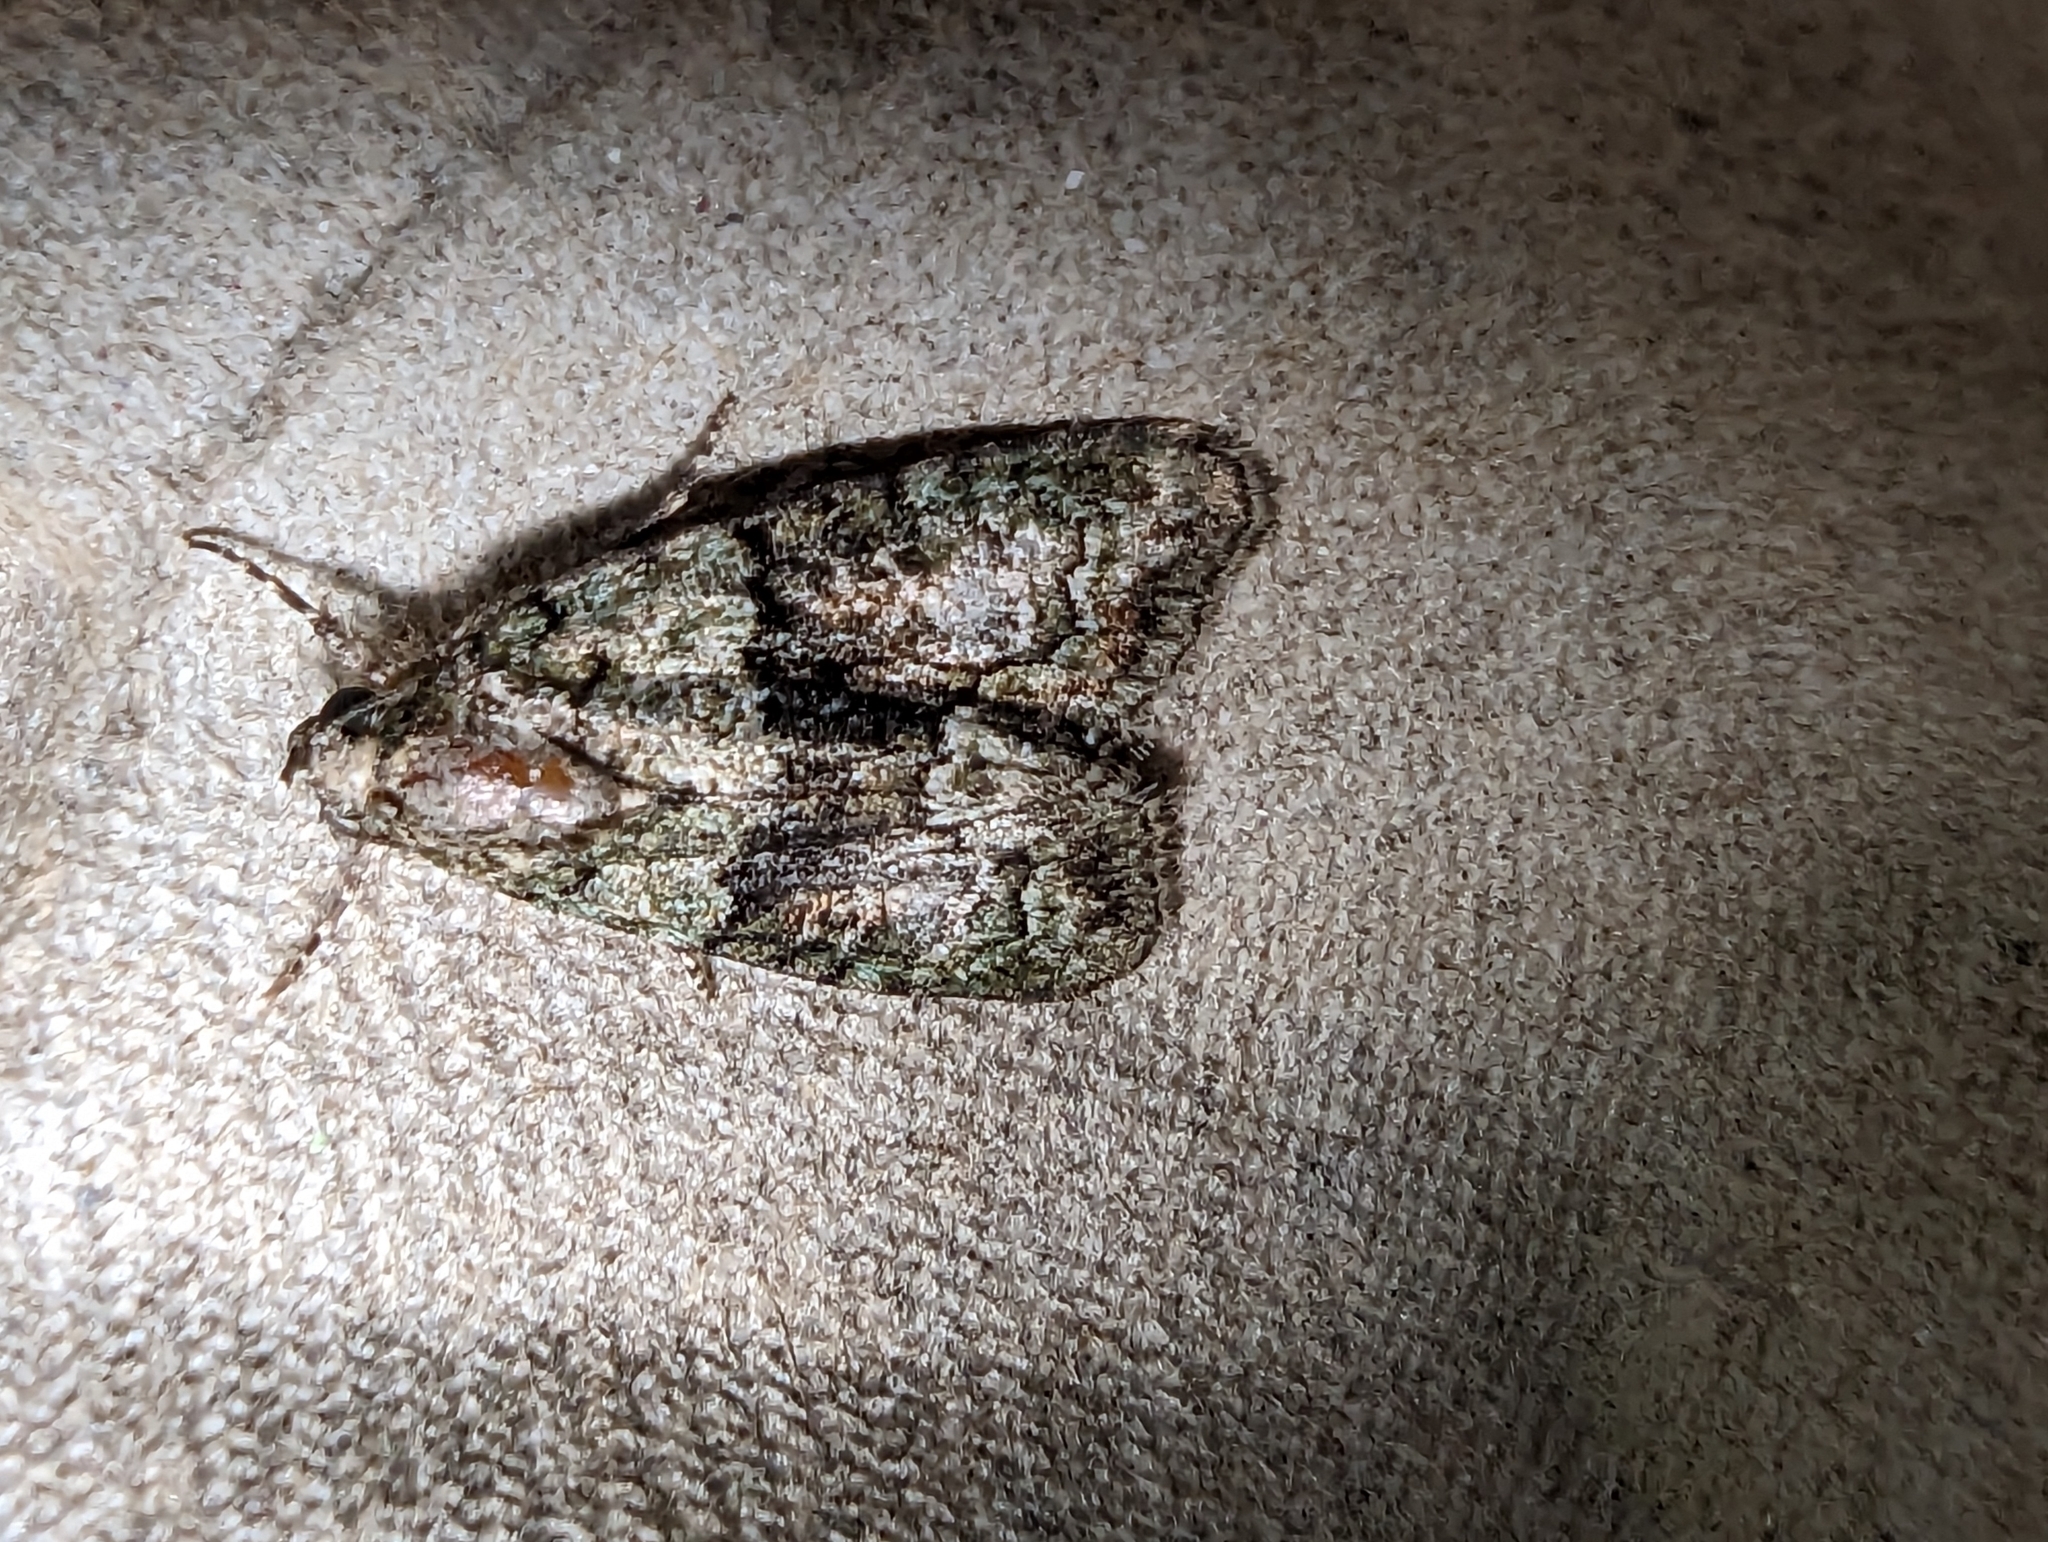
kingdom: Animalia
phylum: Arthropoda
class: Insecta
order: Lepidoptera
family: Noctuidae
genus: Cryphia
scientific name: Cryphia algae
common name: Tree-lichen beauty
